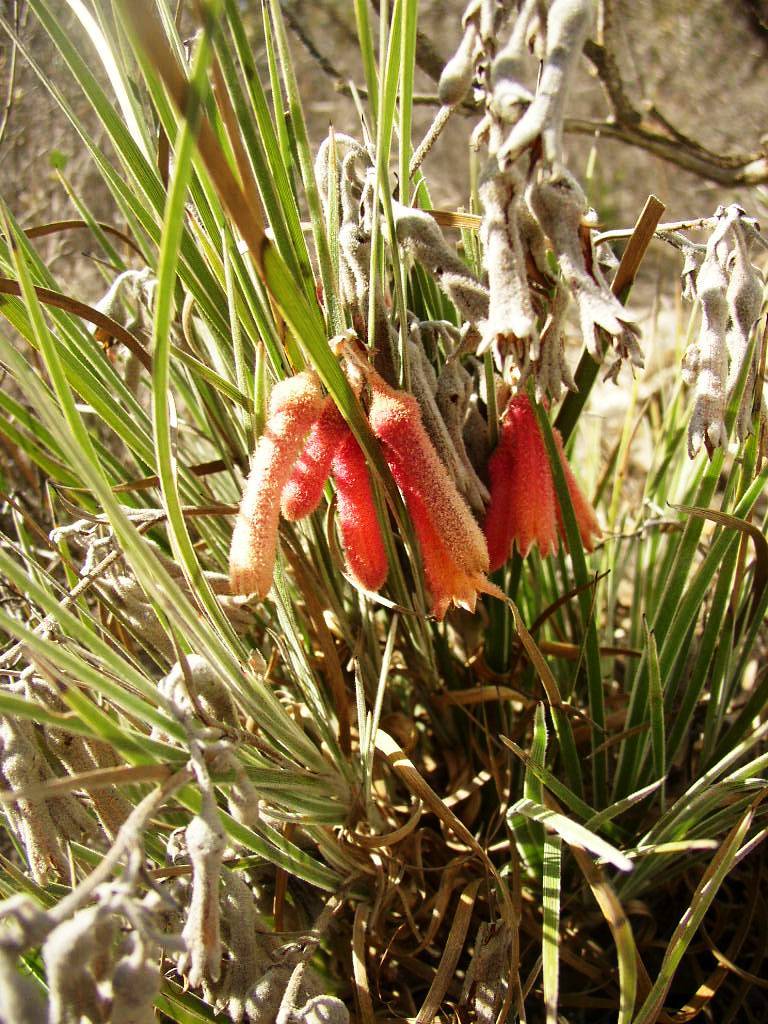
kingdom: Plantae
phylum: Tracheophyta
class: Liliopsida
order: Commelinales
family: Haemodoraceae
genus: Blancoa
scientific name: Blancoa canescens
